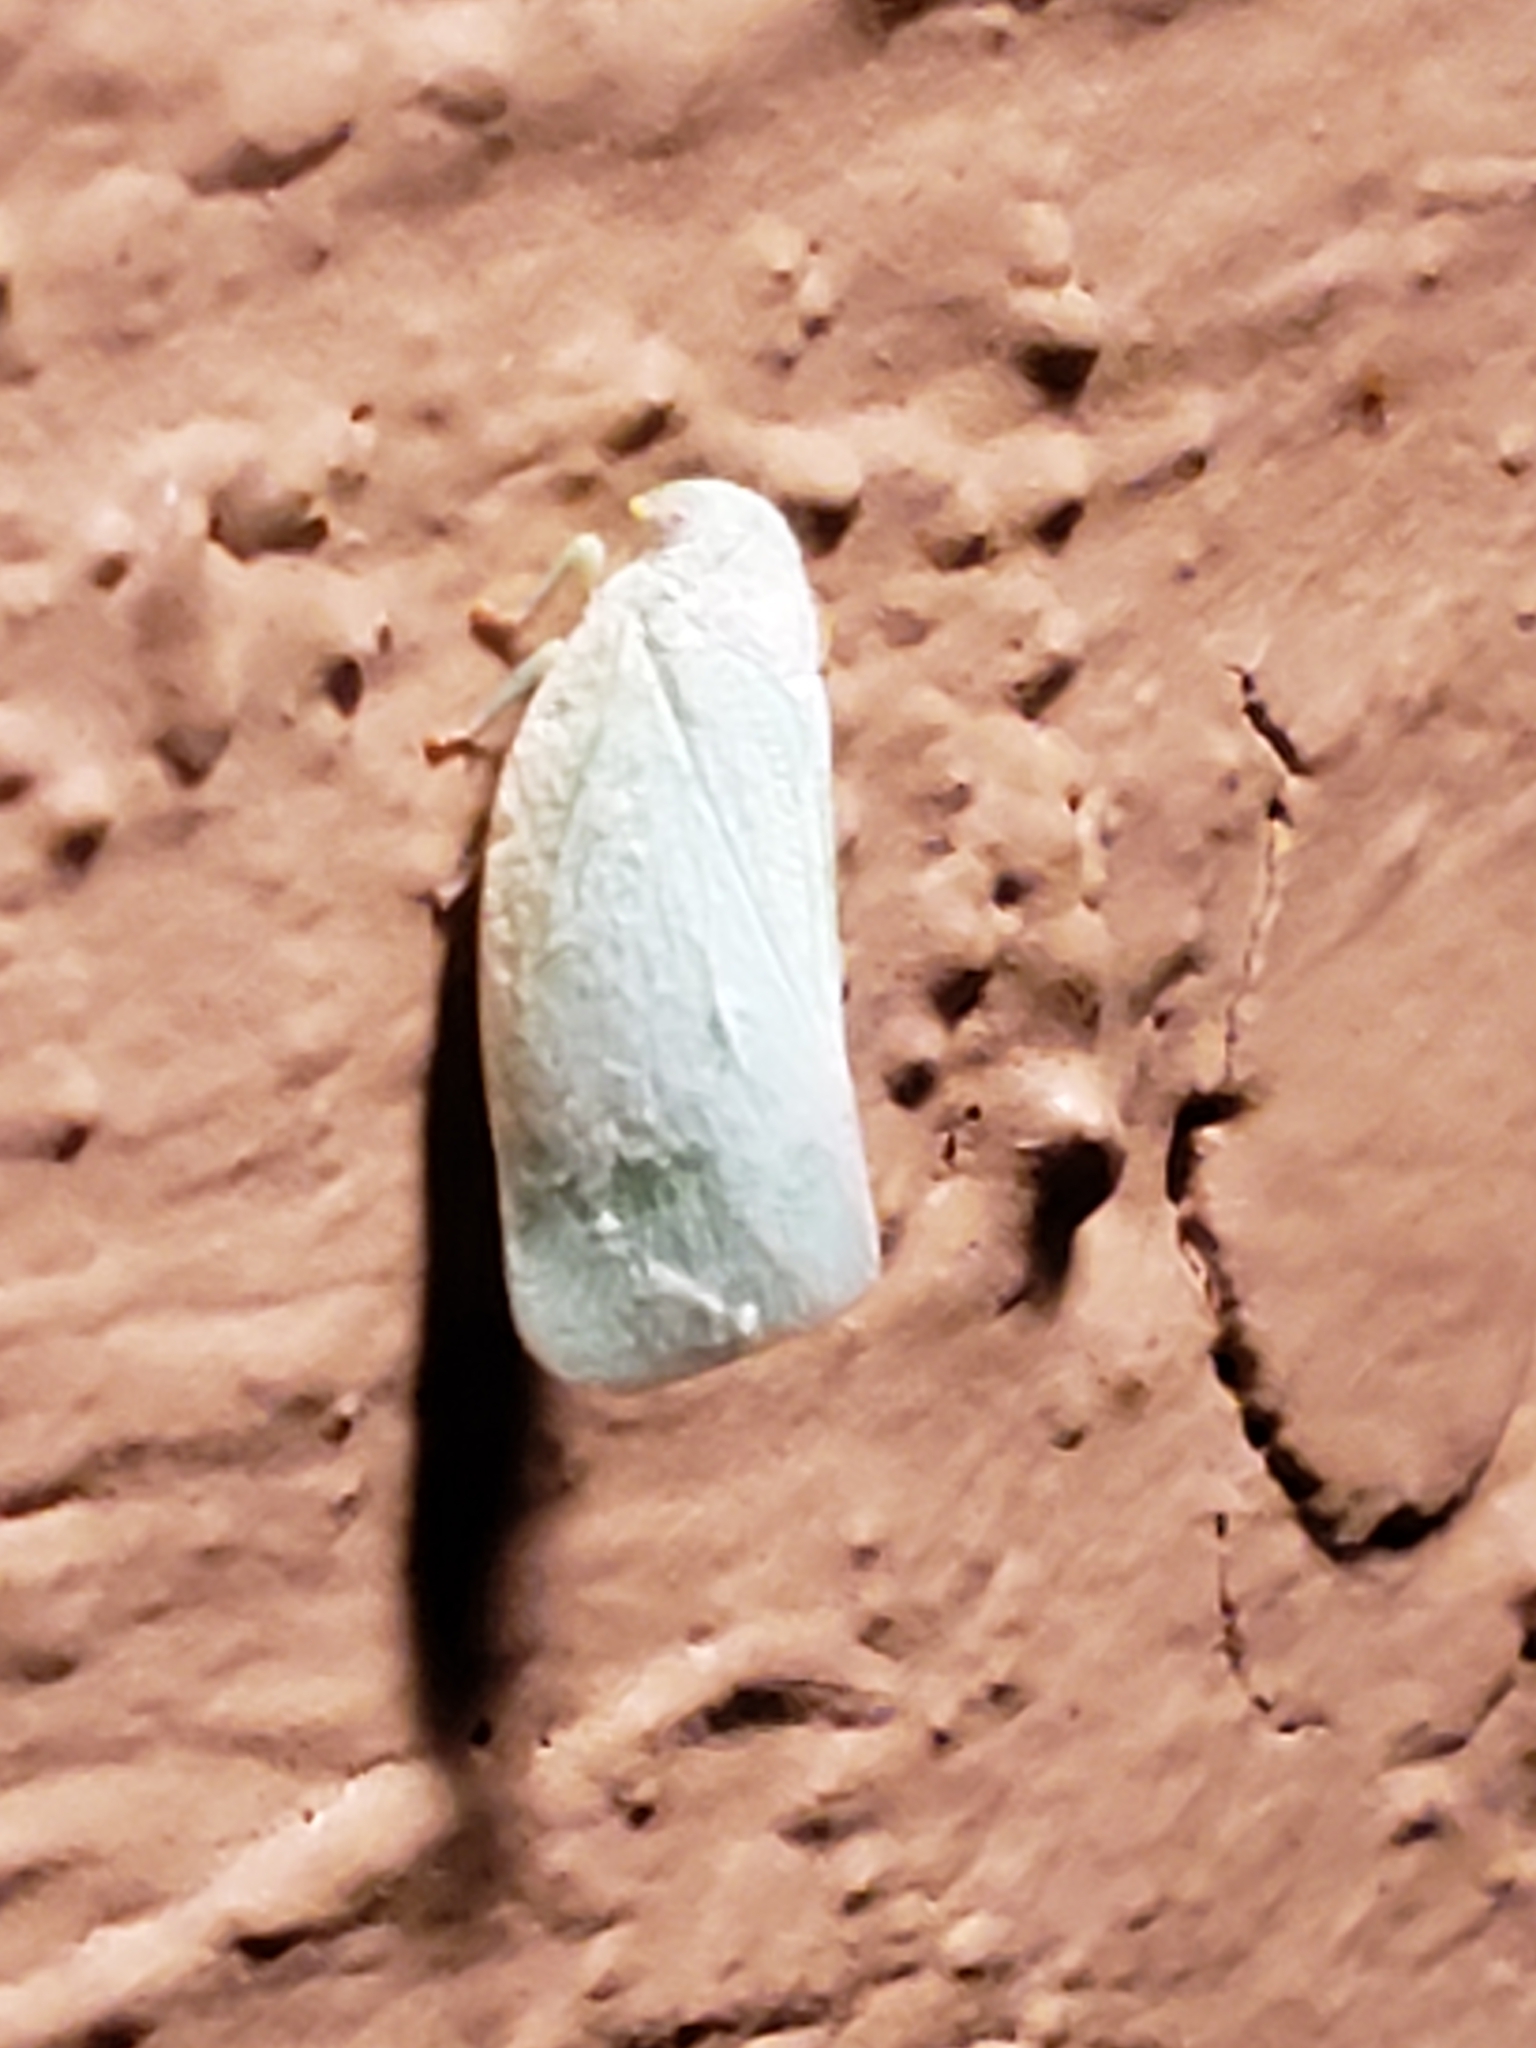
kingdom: Animalia
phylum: Arthropoda
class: Insecta
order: Hemiptera
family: Flatidae
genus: Flatormenis
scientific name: Flatormenis proxima
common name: Northern flatid planthopper
